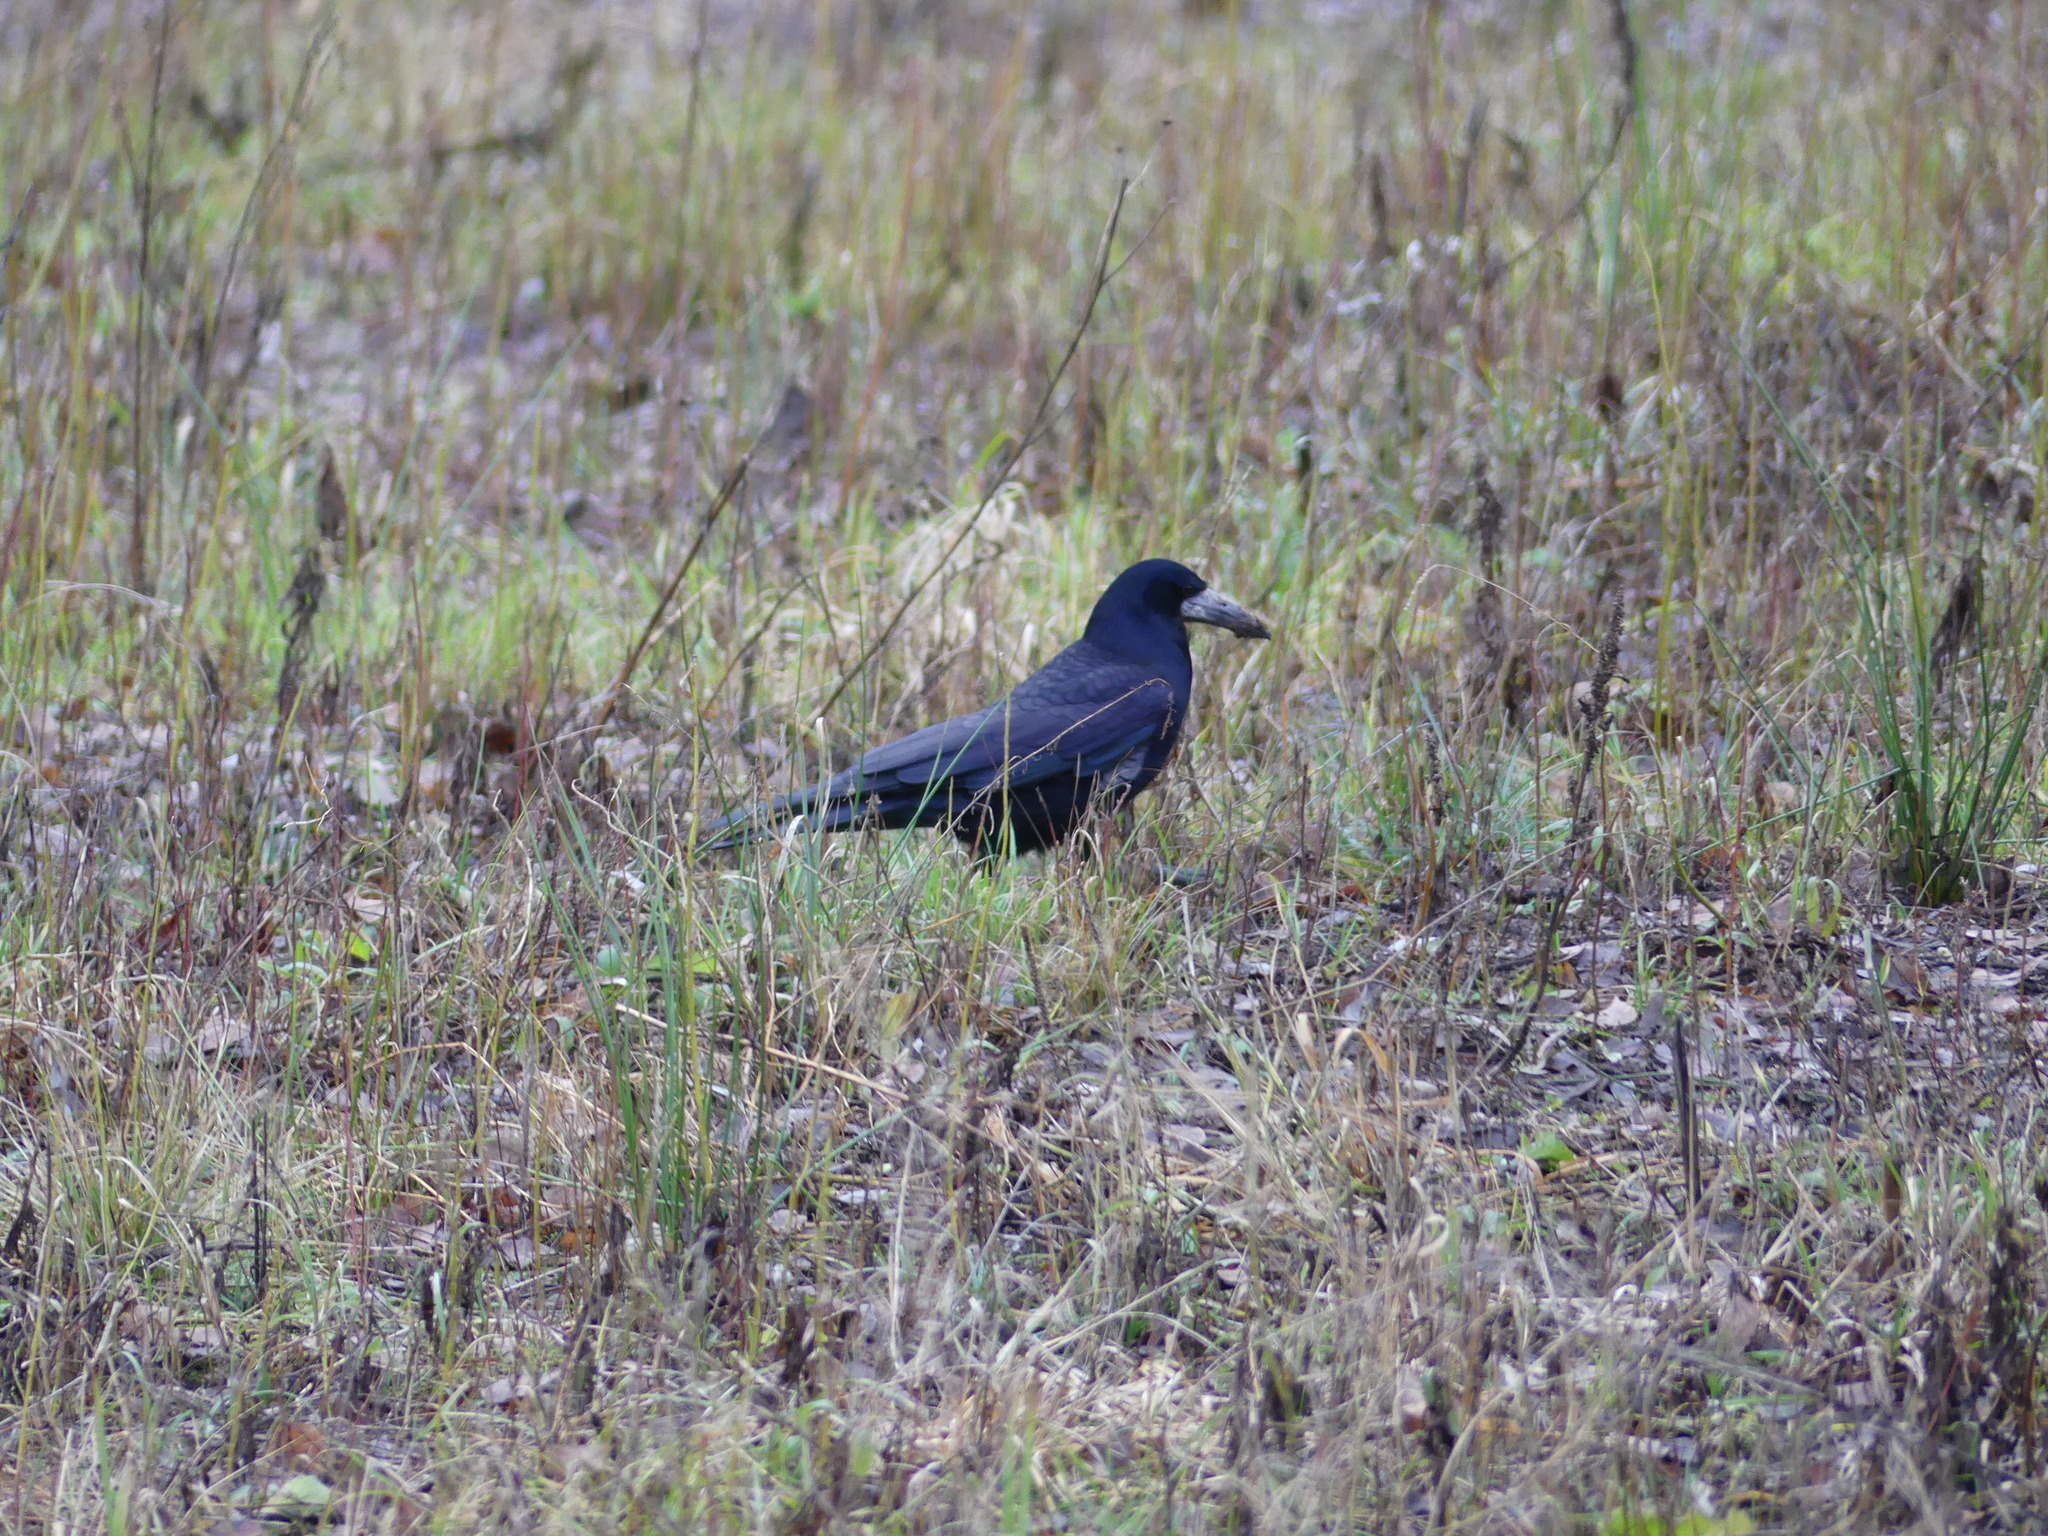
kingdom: Animalia
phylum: Chordata
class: Aves
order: Passeriformes
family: Corvidae
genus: Corvus
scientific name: Corvus frugilegus
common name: Rook
